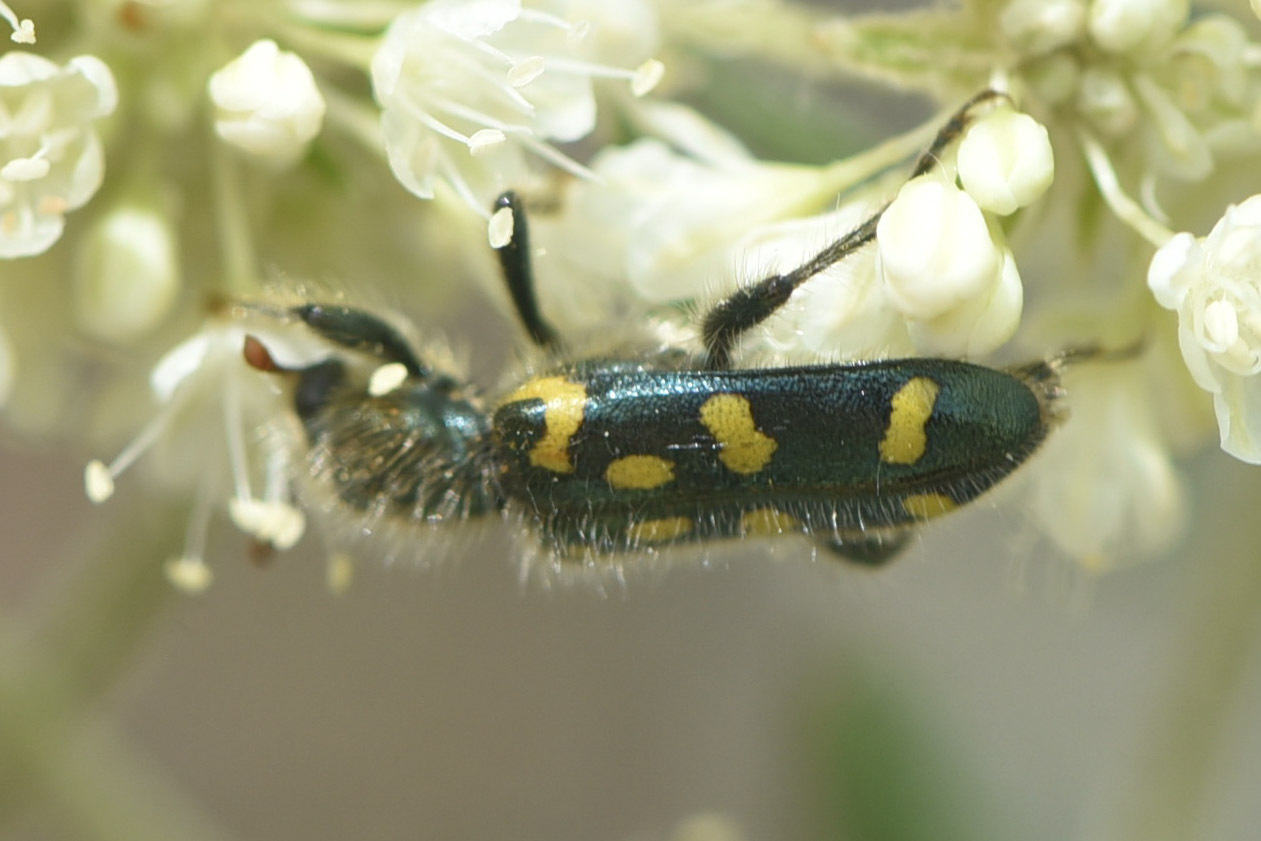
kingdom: Animalia
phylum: Arthropoda
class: Insecta
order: Coleoptera
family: Cleridae
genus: Trichodes
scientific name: Trichodes ornatus
